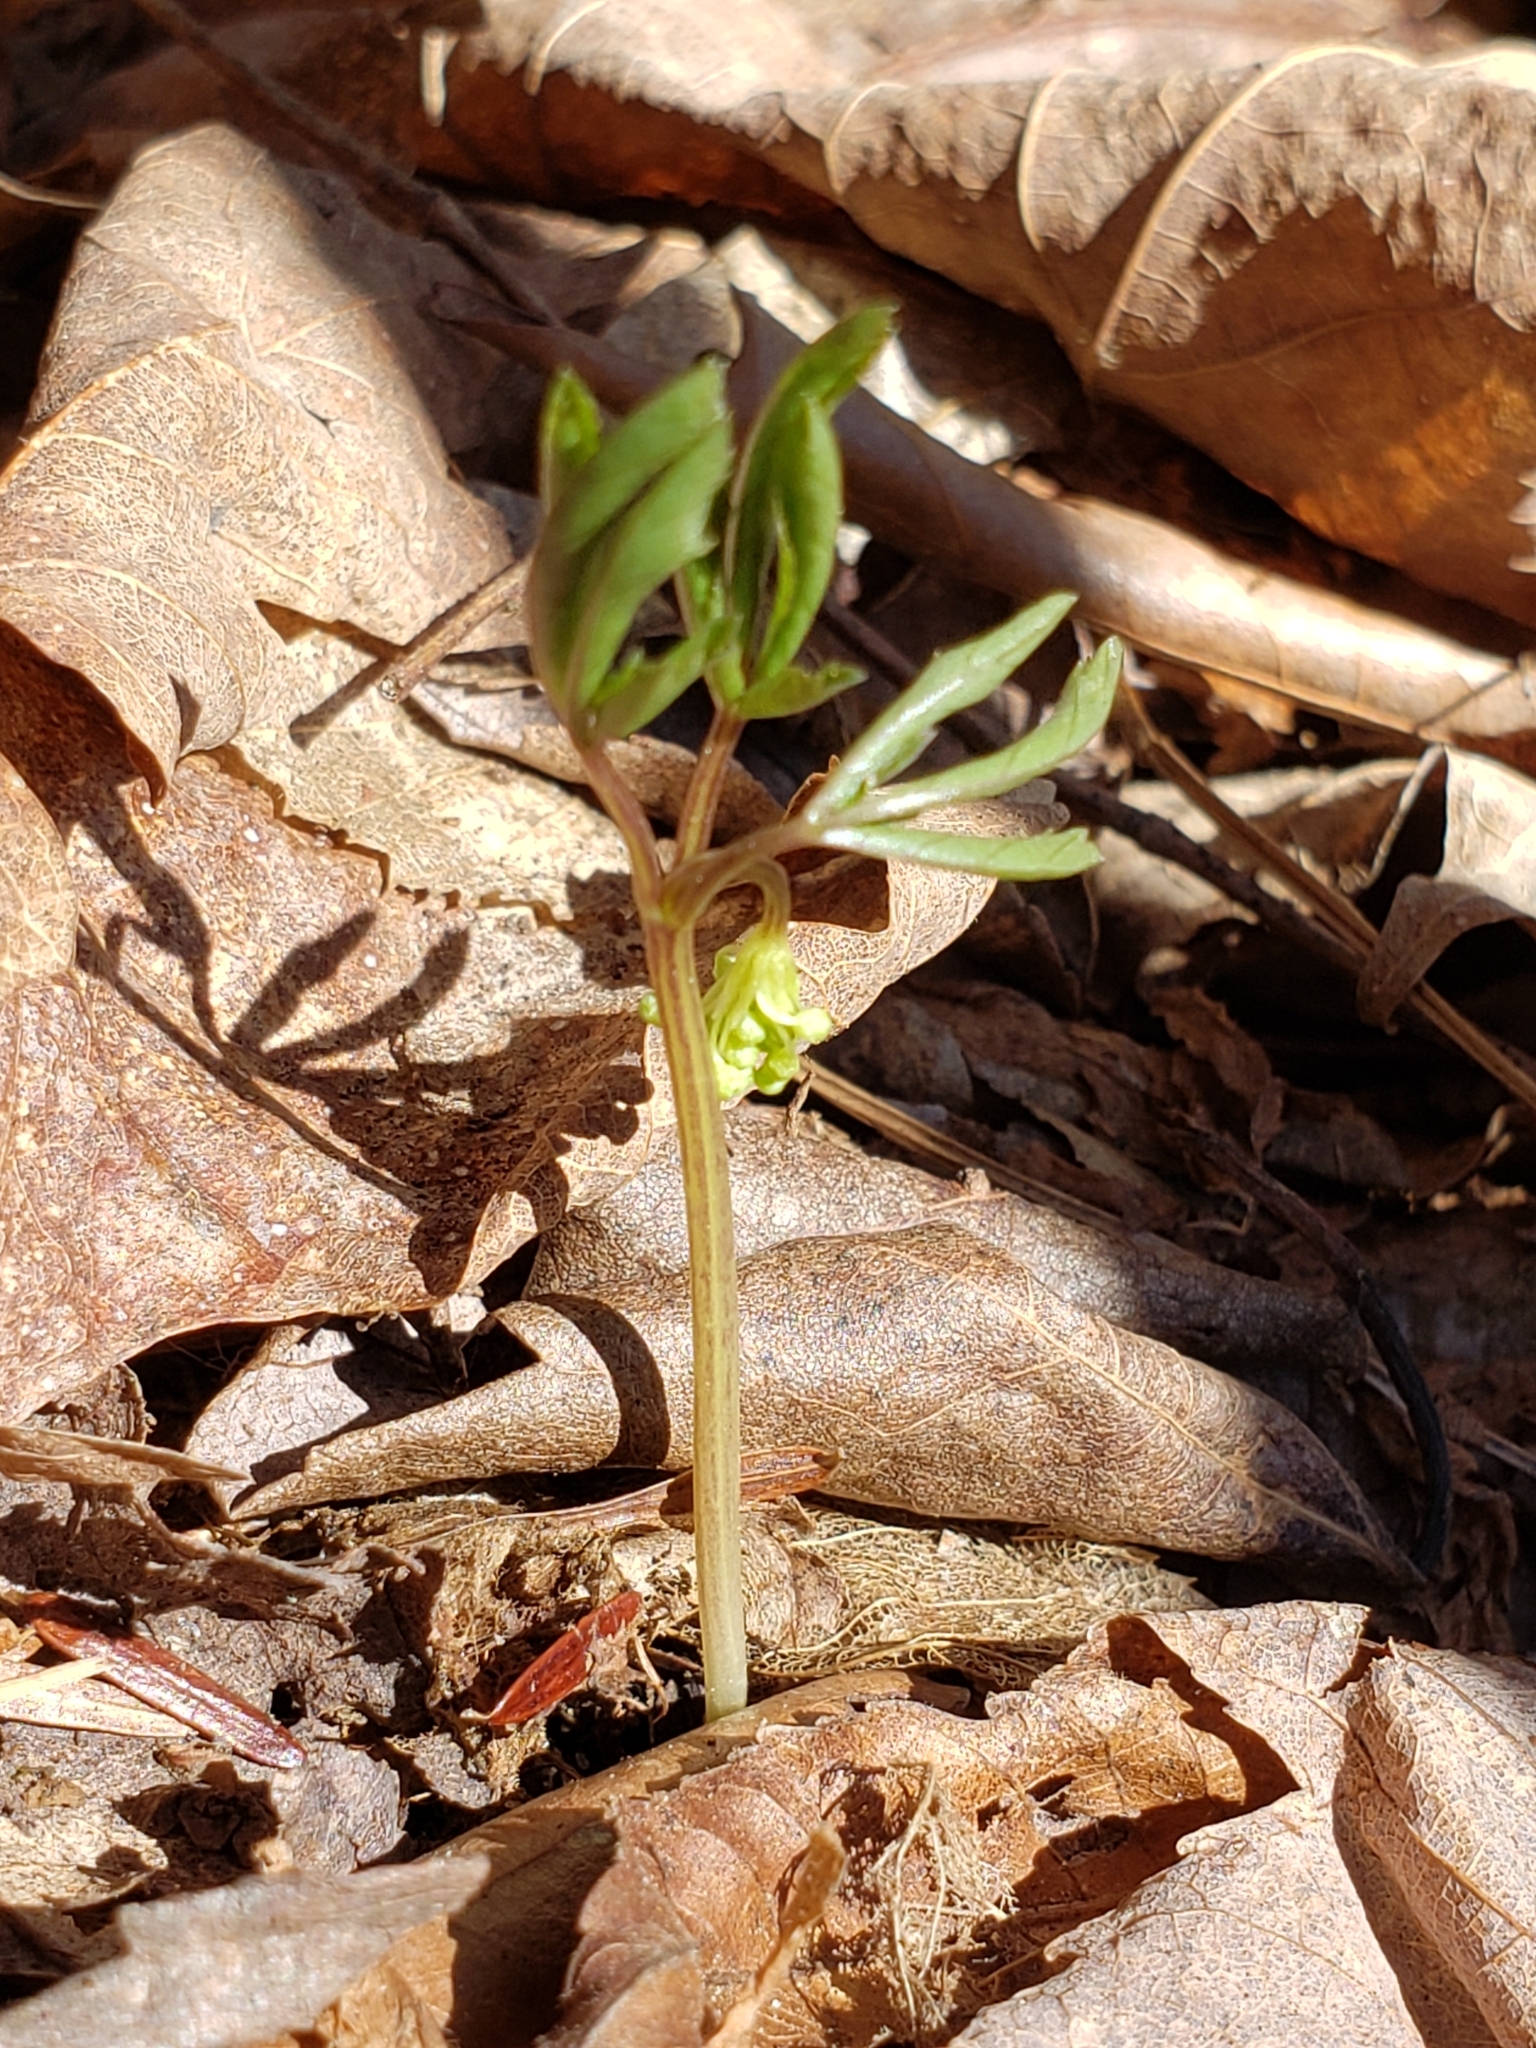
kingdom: Plantae
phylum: Tracheophyta
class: Magnoliopsida
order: Apiales
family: Araliaceae
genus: Panax
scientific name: Panax trifolius
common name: Dwarf ginseng
